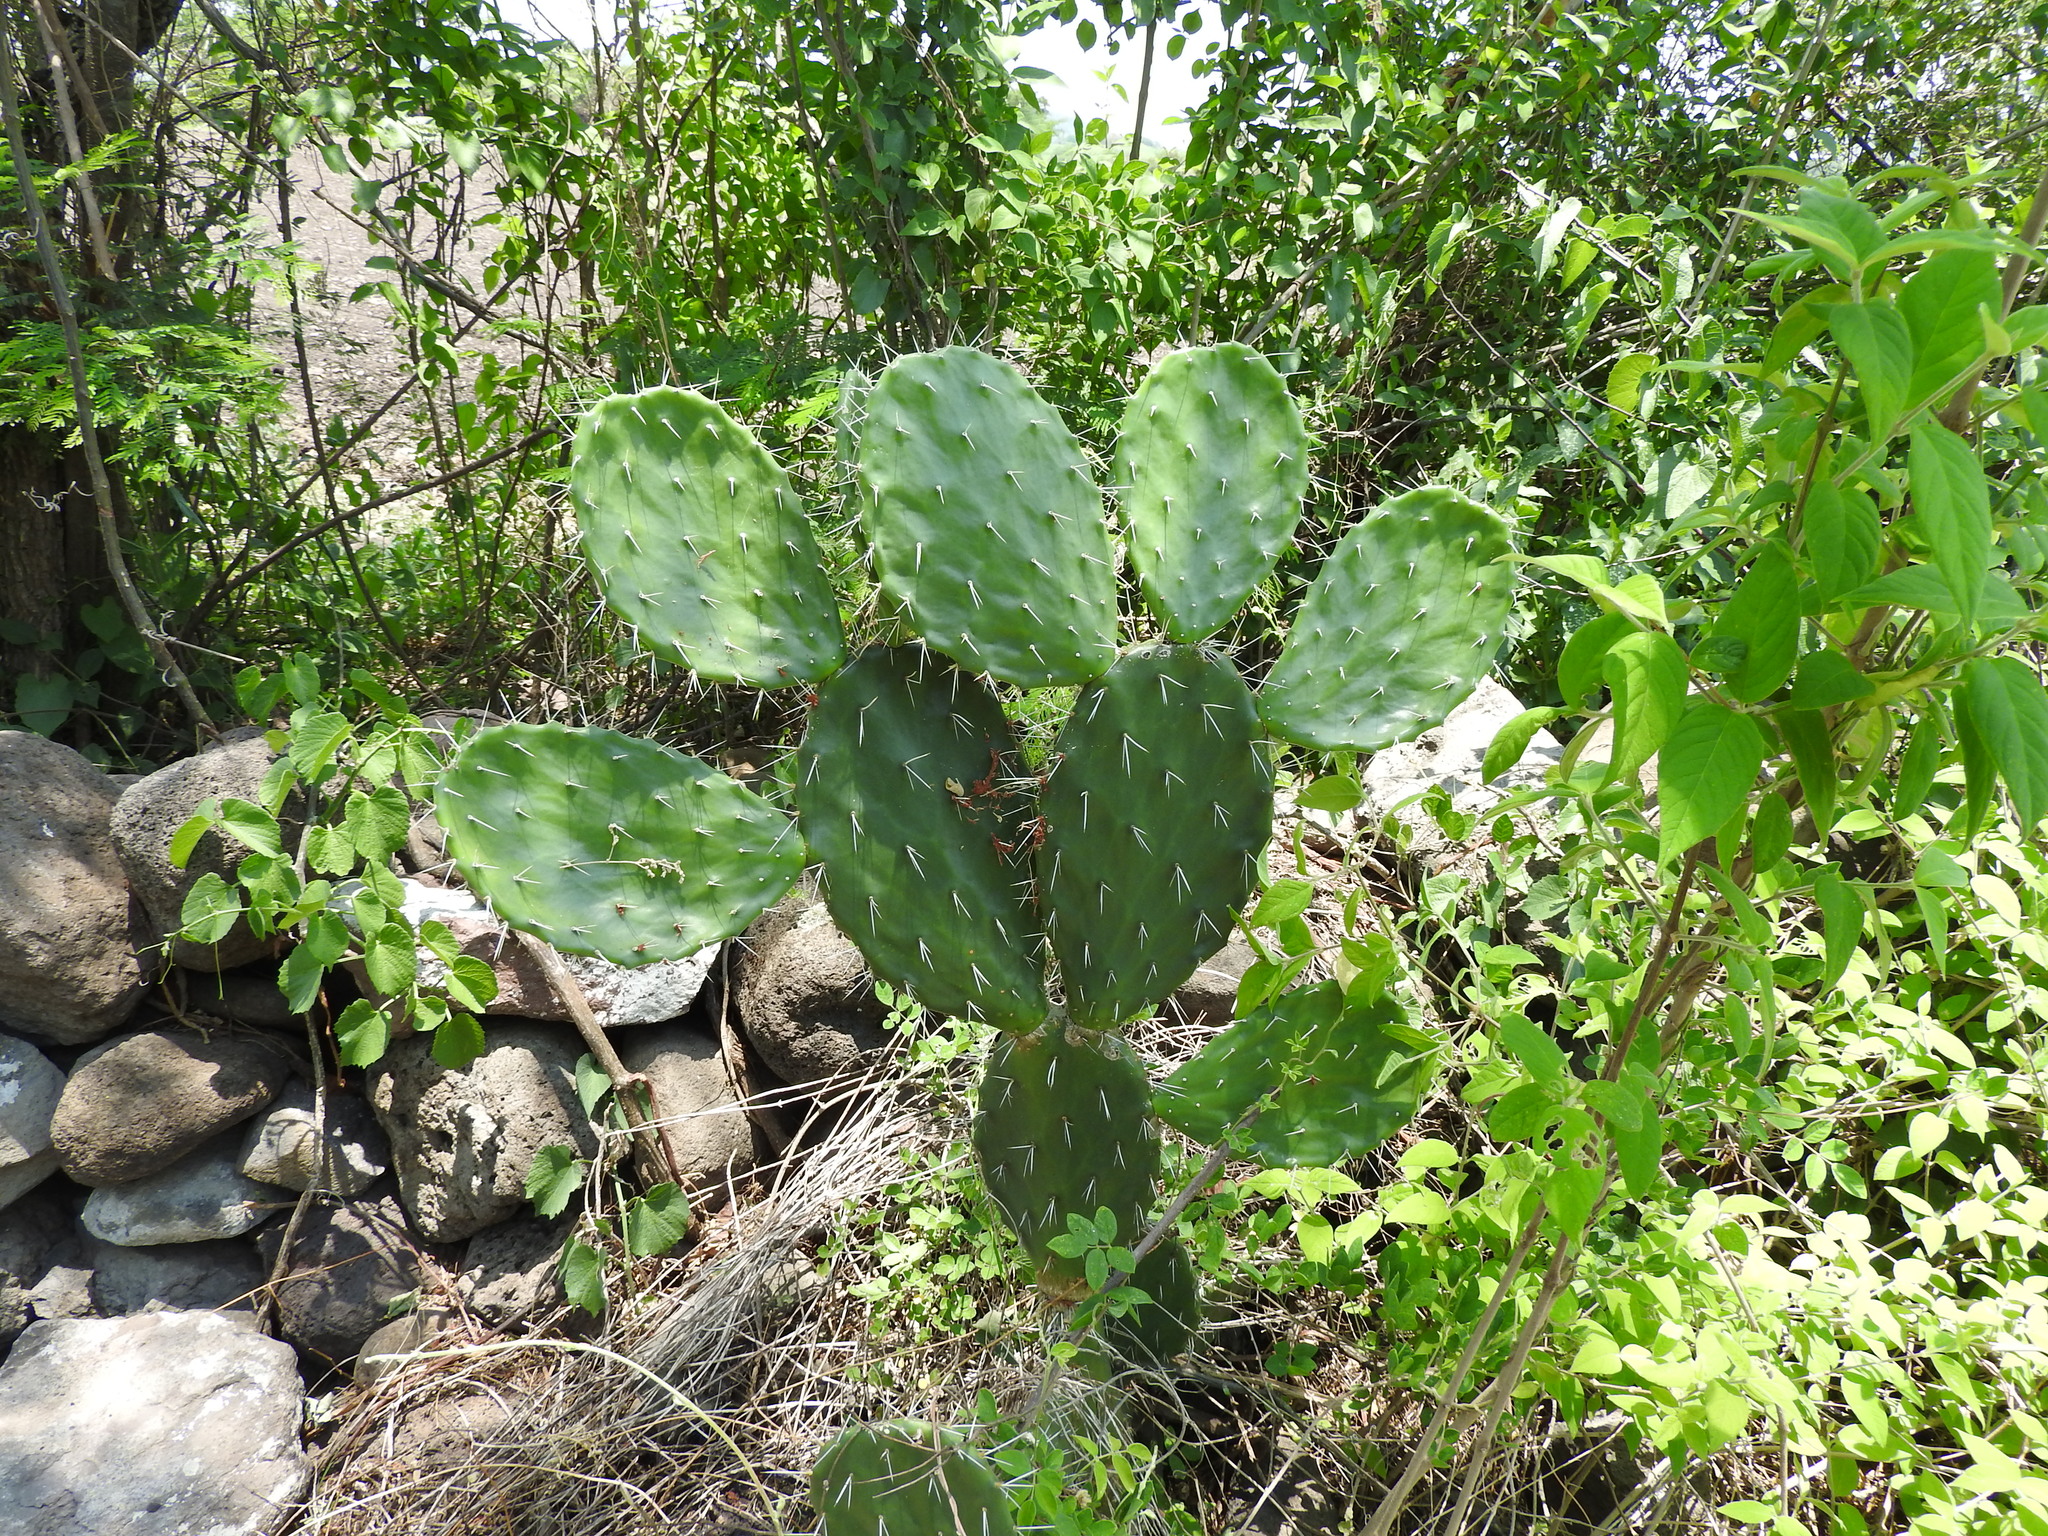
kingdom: Plantae
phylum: Tracheophyta
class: Magnoliopsida
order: Caryophyllales
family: Cactaceae
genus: Opuntia
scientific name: Opuntia jaliscana
